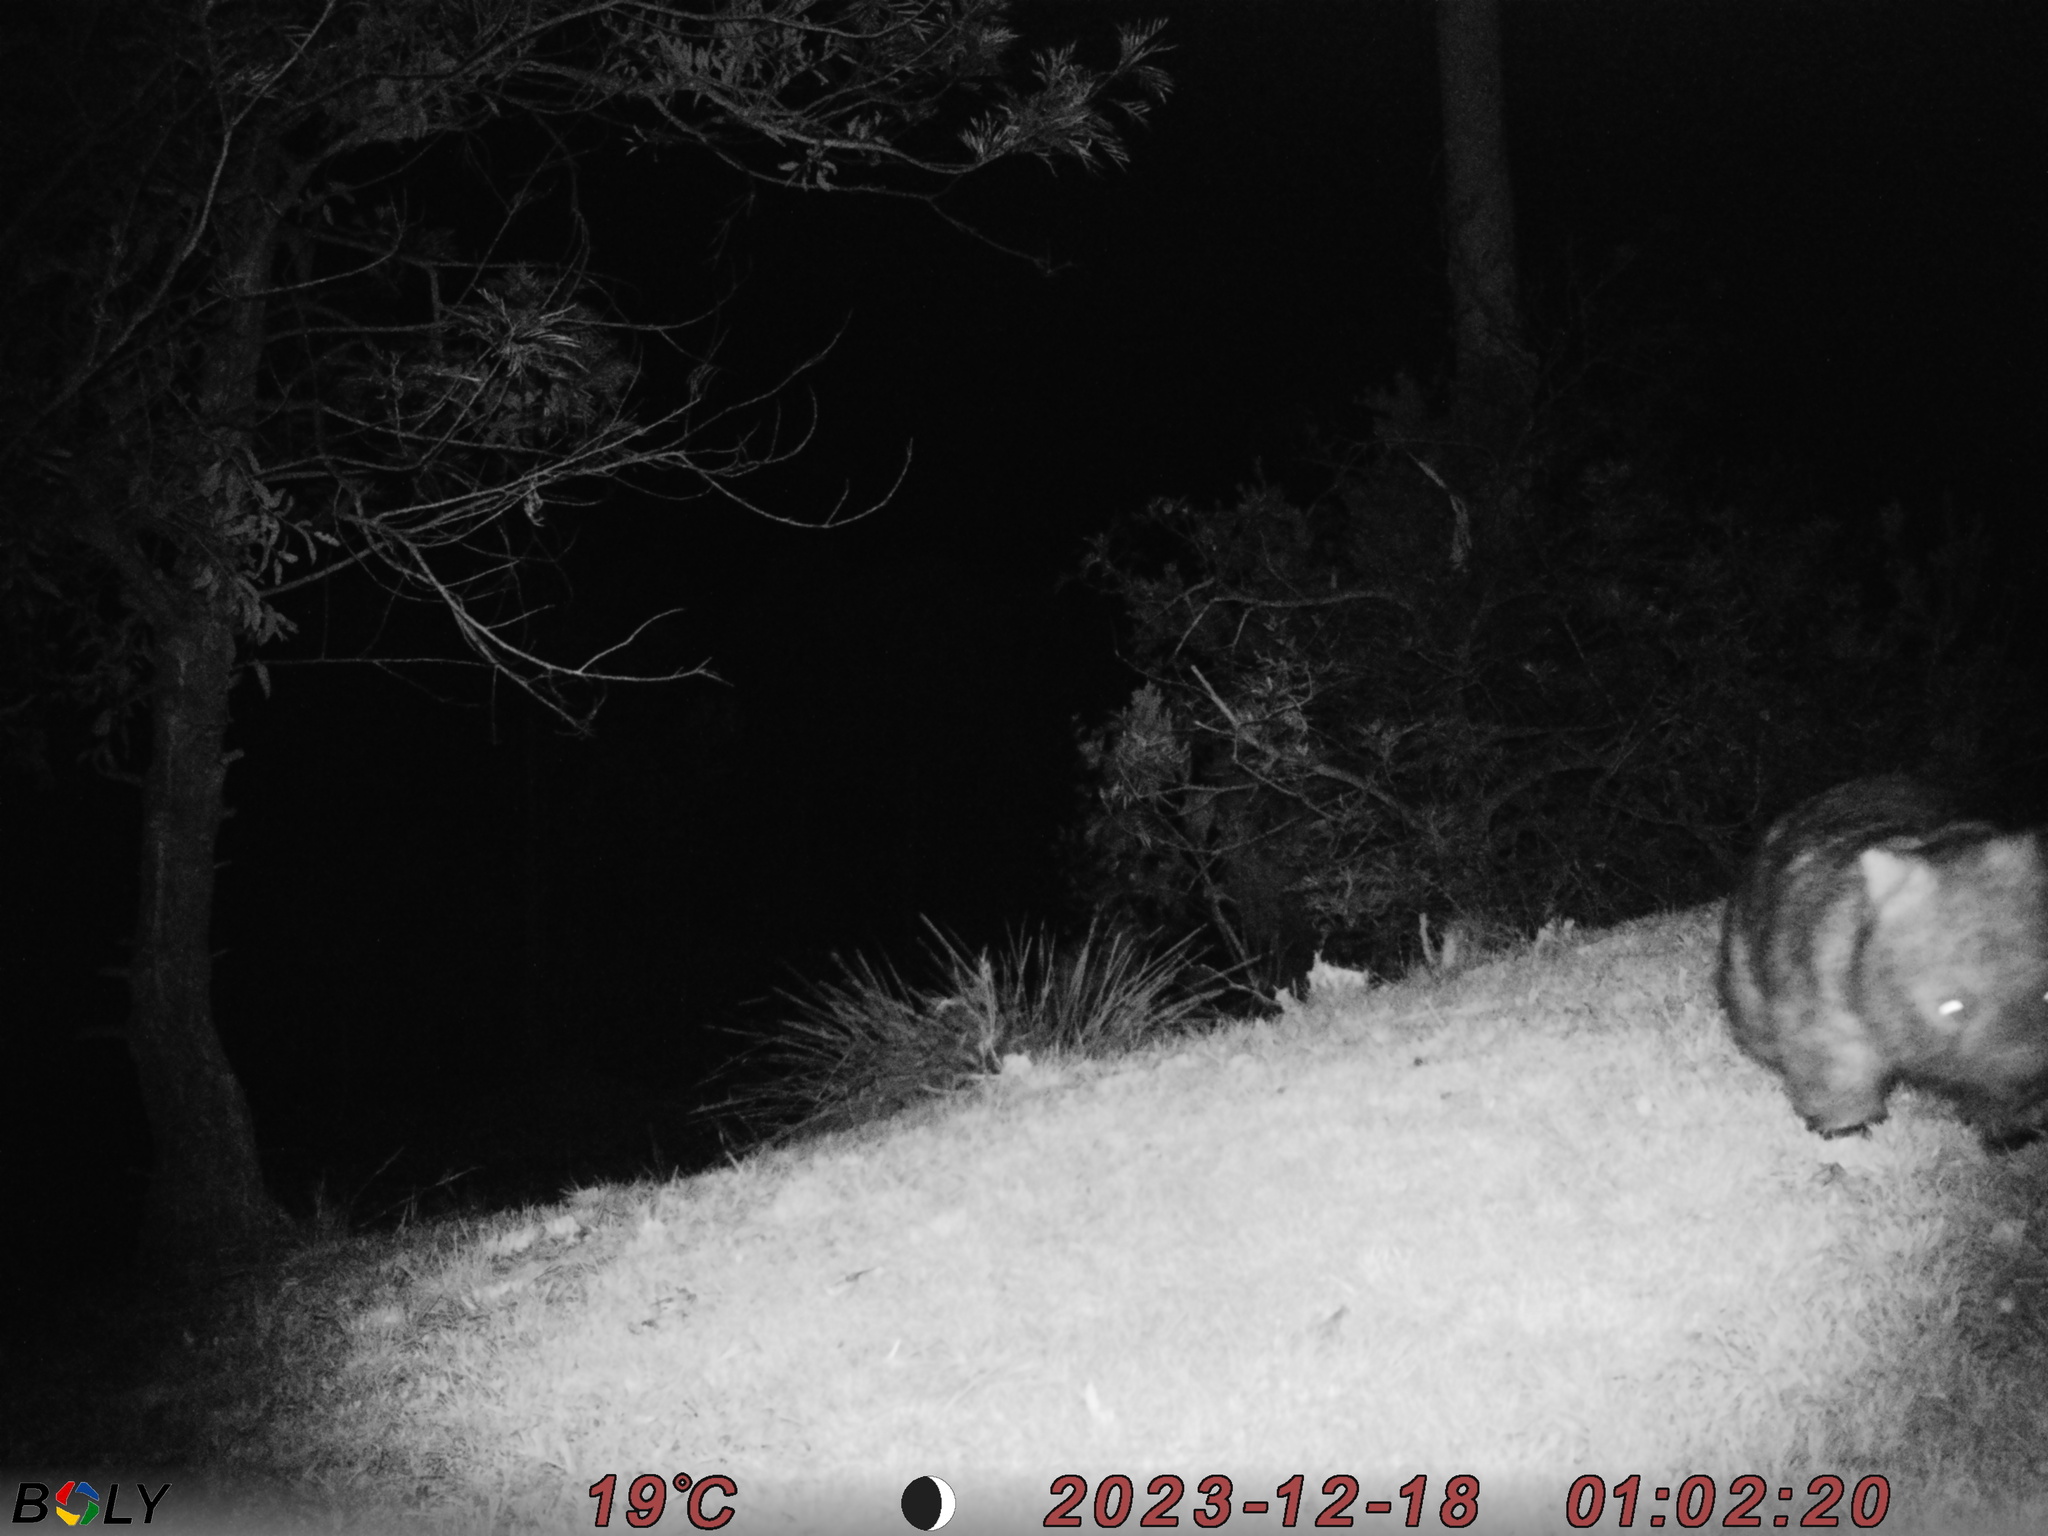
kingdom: Animalia
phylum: Chordata
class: Mammalia
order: Diprotodontia
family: Vombatidae
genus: Vombatus
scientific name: Vombatus ursinus
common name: Common wombat
